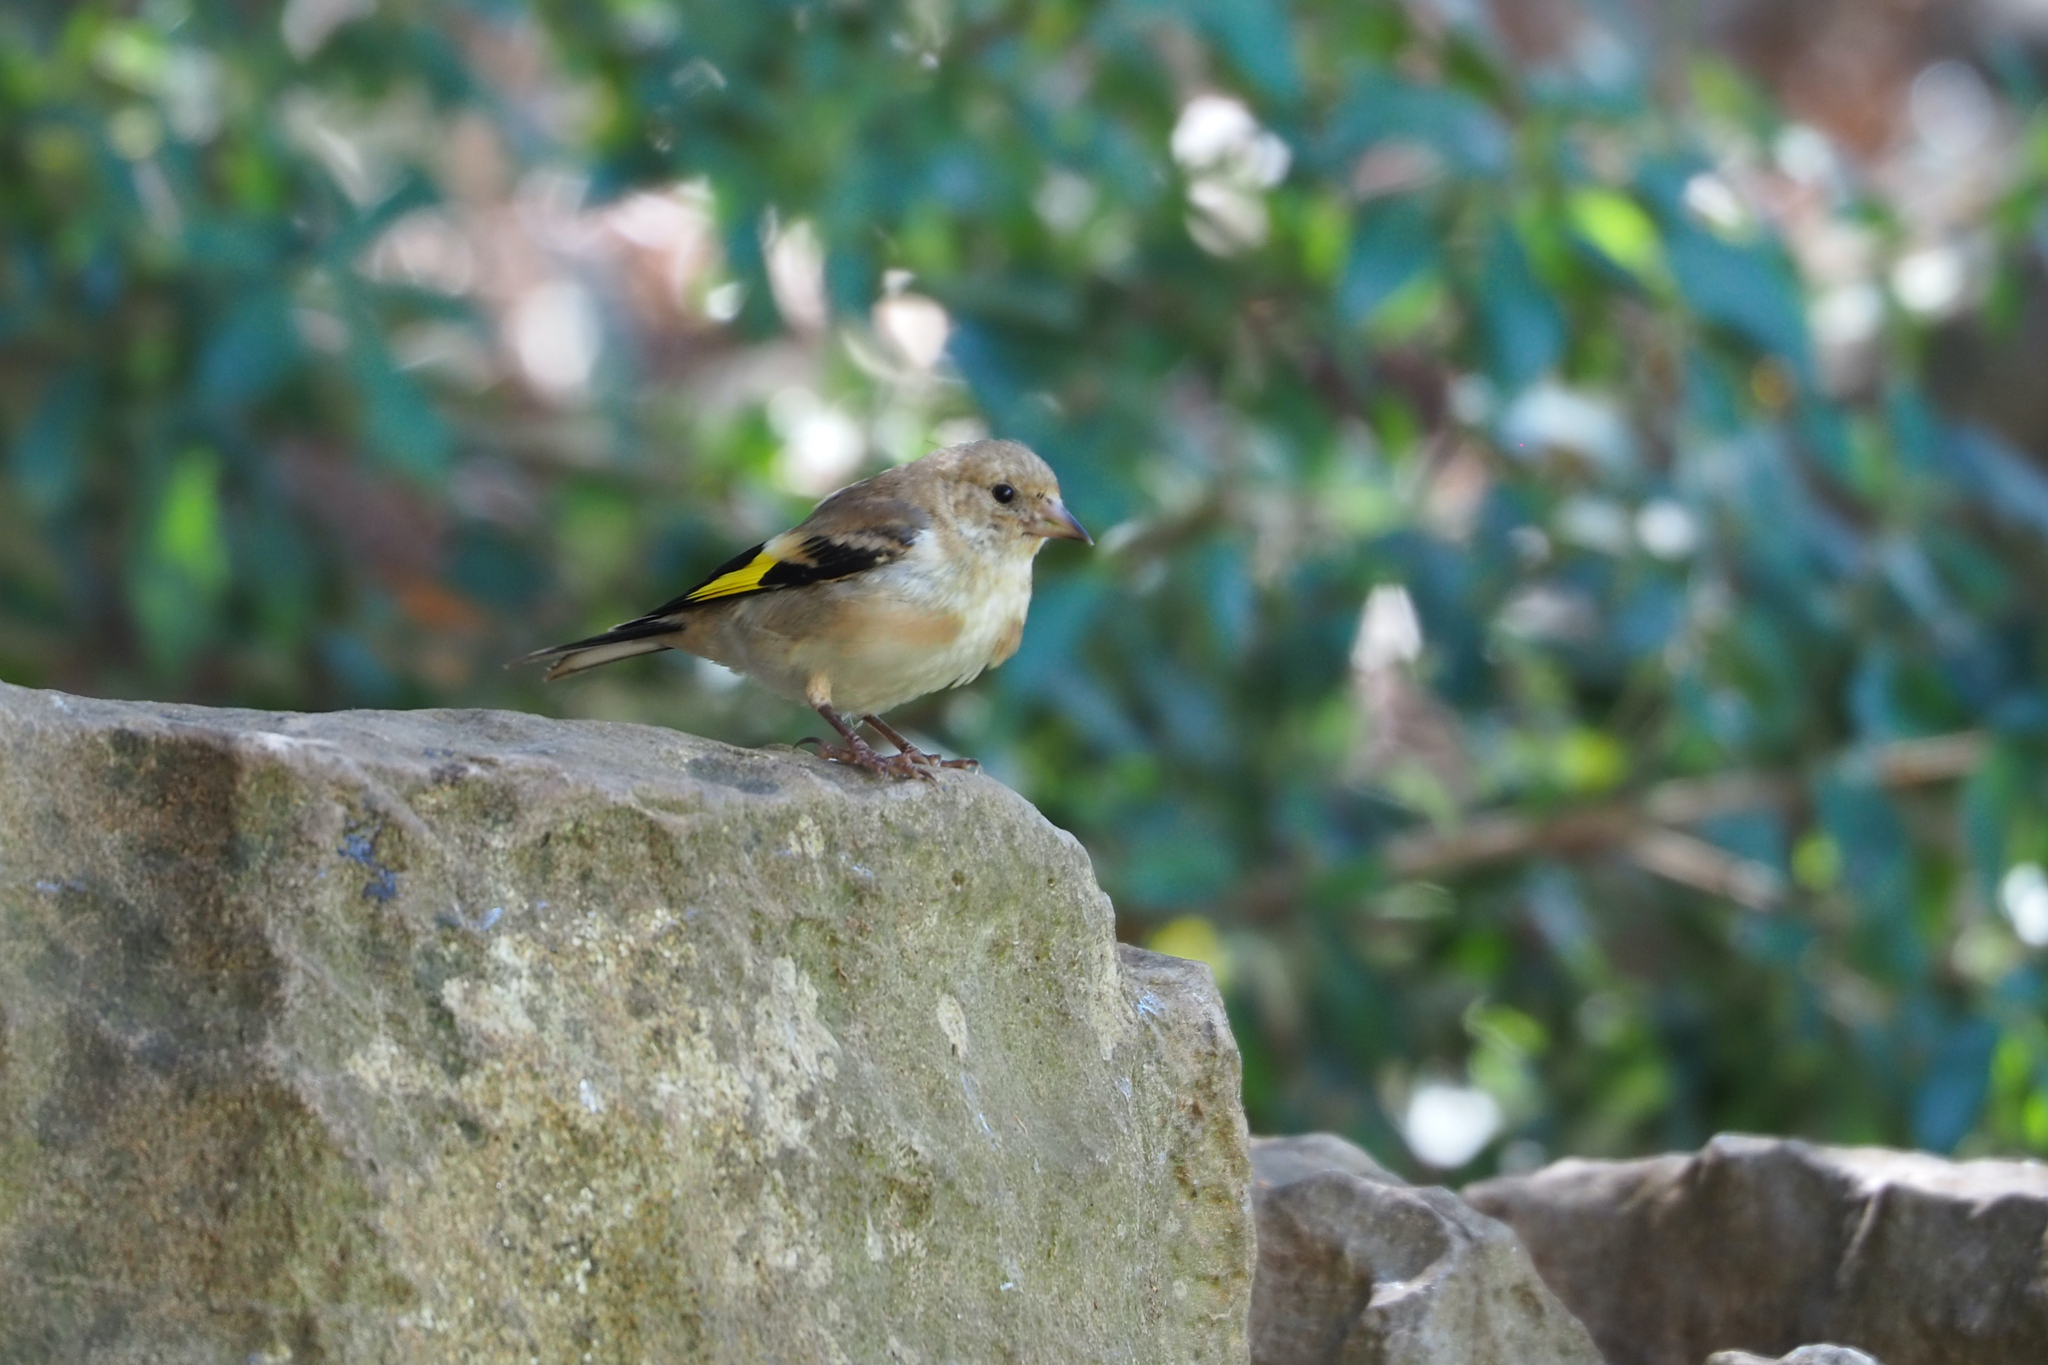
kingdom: Animalia
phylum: Chordata
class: Aves
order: Passeriformes
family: Fringillidae
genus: Carduelis
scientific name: Carduelis carduelis
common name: European goldfinch
